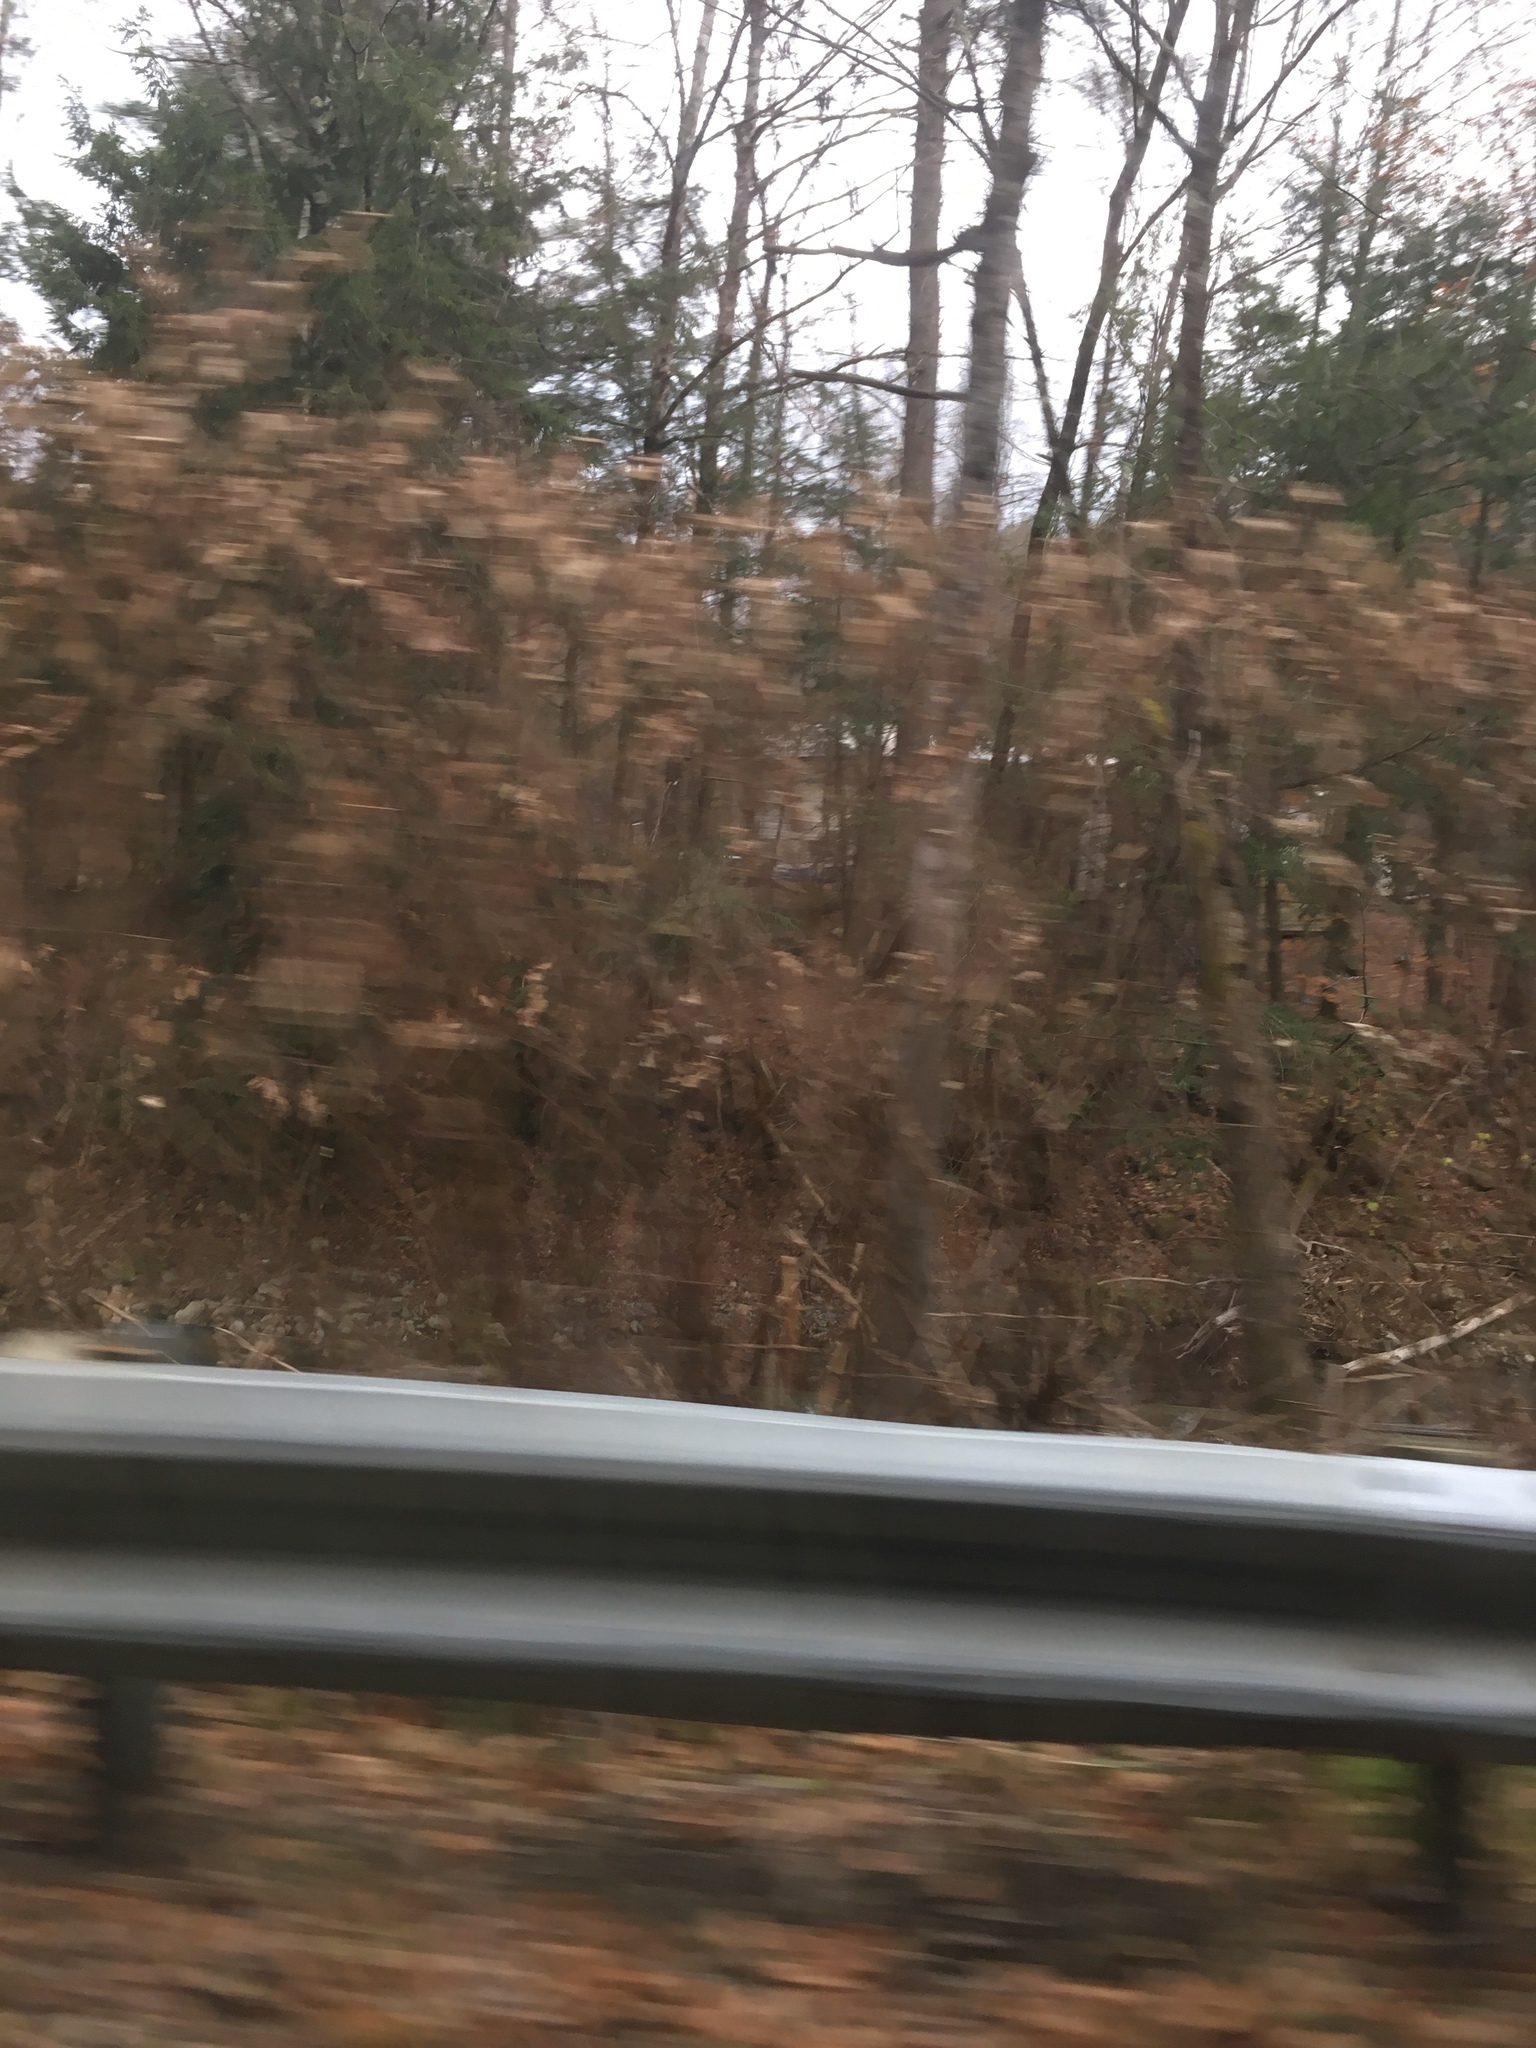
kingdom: Plantae
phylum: Tracheophyta
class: Magnoliopsida
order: Caryophyllales
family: Polygonaceae
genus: Reynoutria
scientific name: Reynoutria japonica
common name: Japanese knotweed
